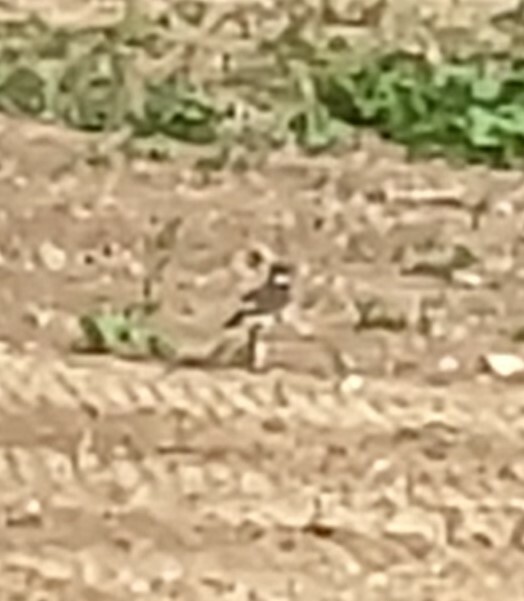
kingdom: Animalia
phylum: Chordata
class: Aves
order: Charadriiformes
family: Charadriidae
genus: Charadrius
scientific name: Charadrius vociferus
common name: Killdeer
